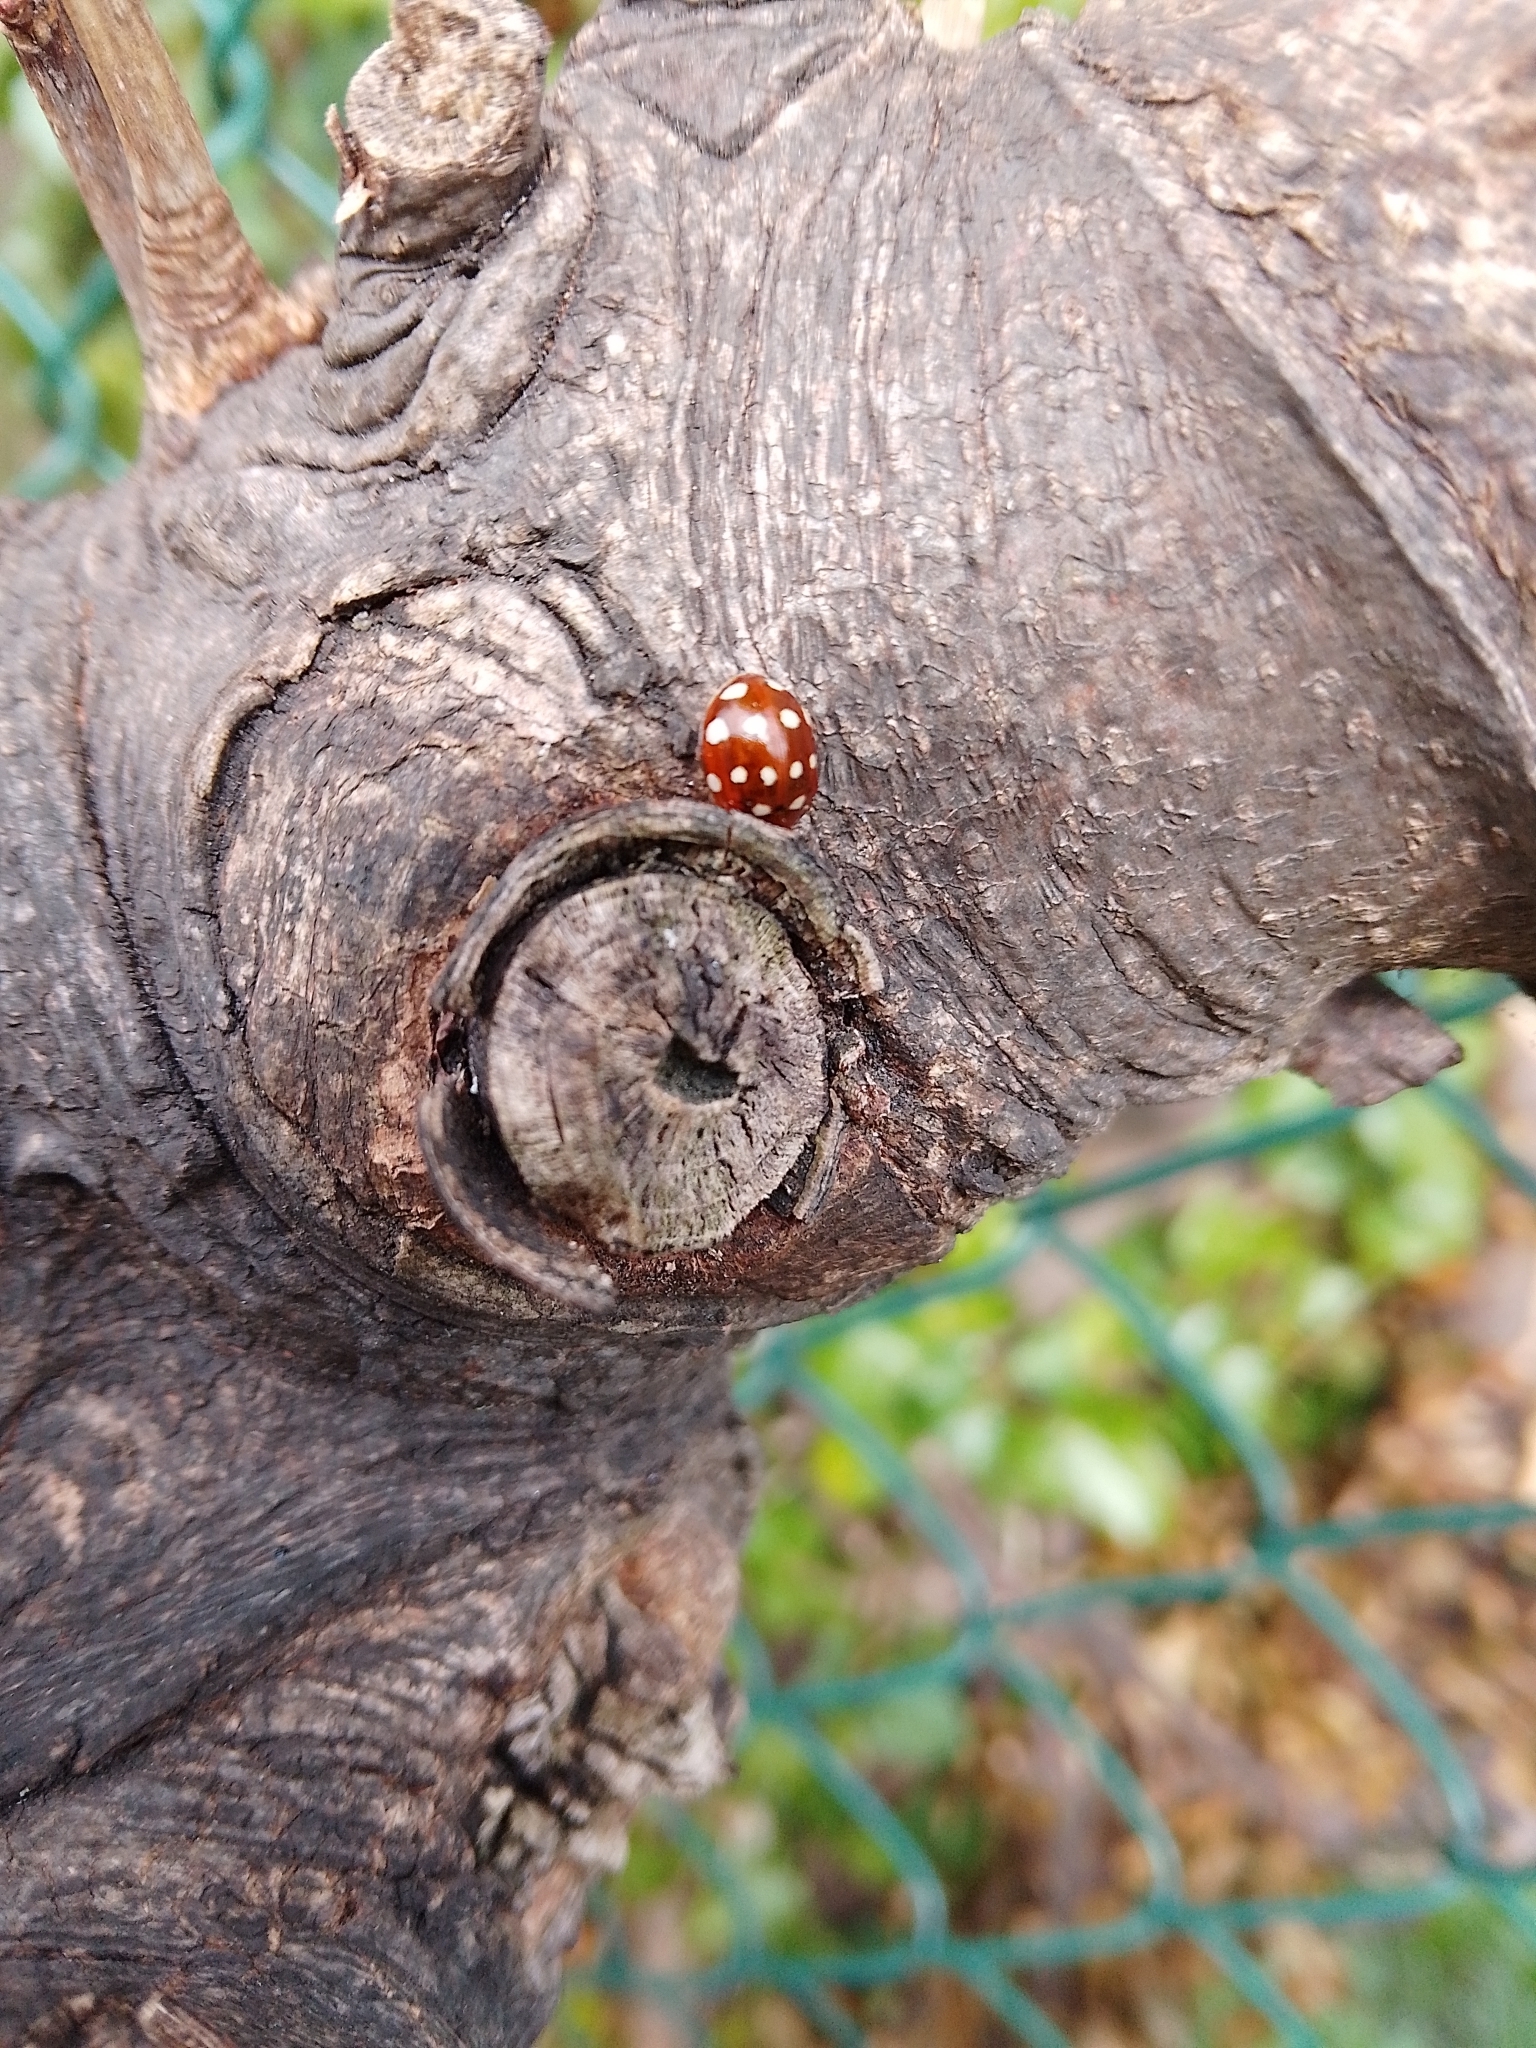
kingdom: Animalia
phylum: Arthropoda
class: Insecta
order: Coleoptera
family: Coccinellidae
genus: Calvia
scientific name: Calvia quatuordecimguttata
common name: Cream-spot ladybird
